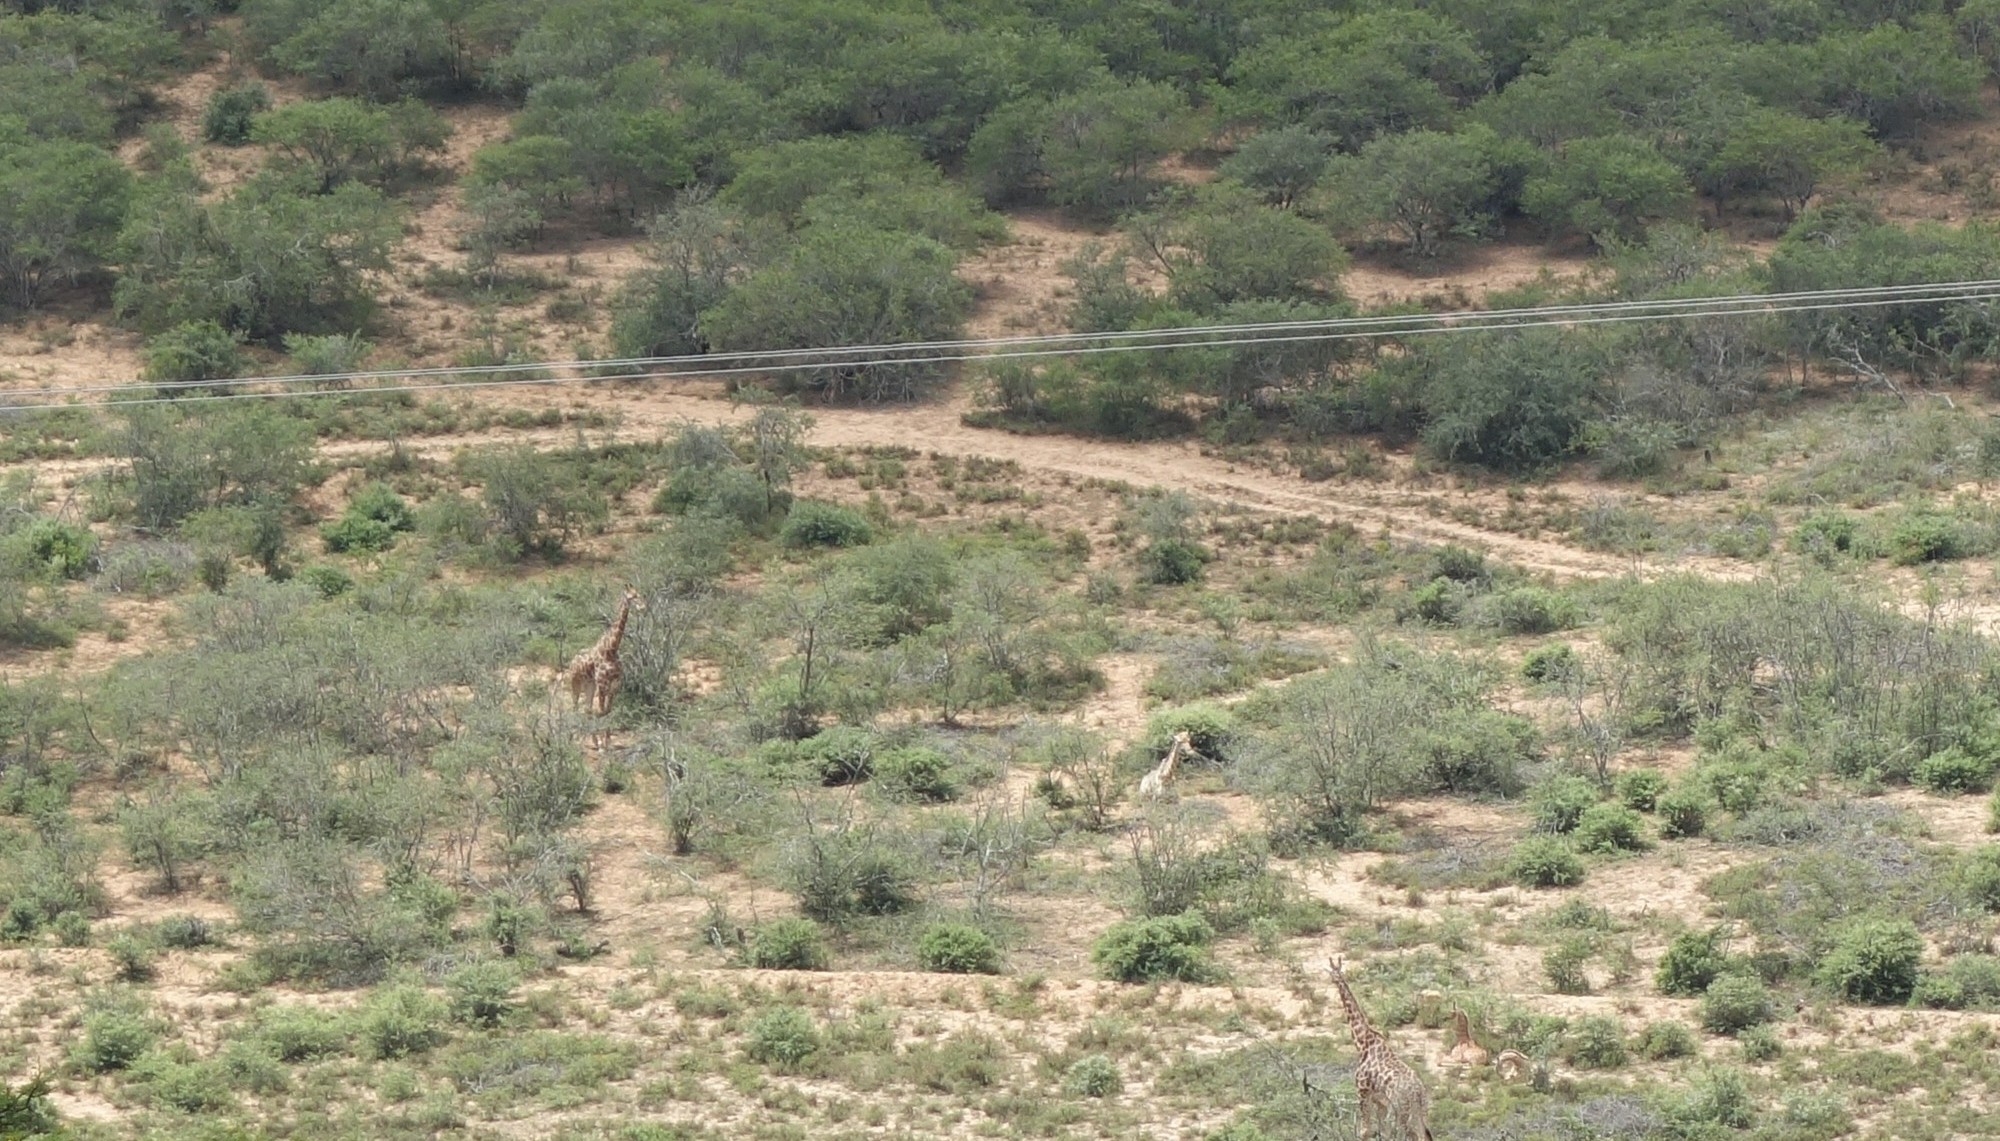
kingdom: Animalia
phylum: Chordata
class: Mammalia
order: Artiodactyla
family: Giraffidae
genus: Giraffa
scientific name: Giraffa giraffa
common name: Southern giraffe
